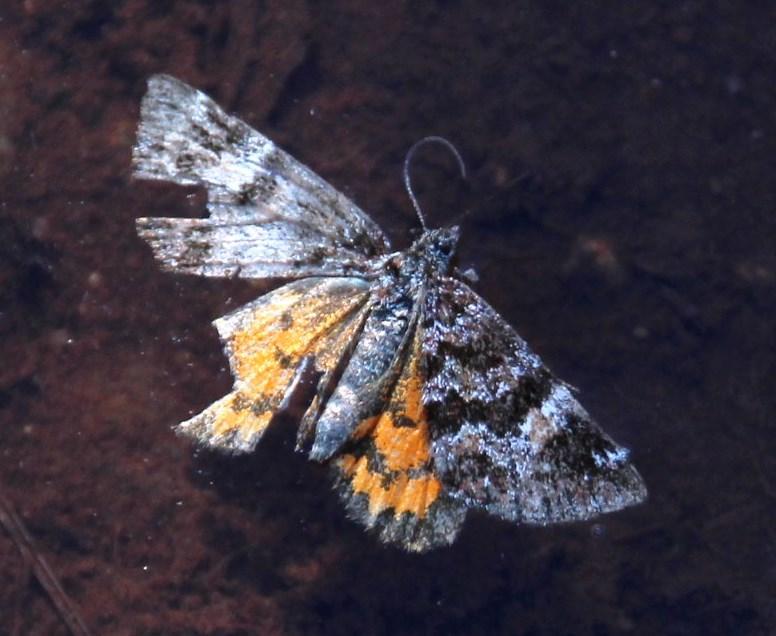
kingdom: Animalia
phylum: Arthropoda
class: Insecta
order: Lepidoptera
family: Geometridae
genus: Larentia
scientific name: Larentia macerata
